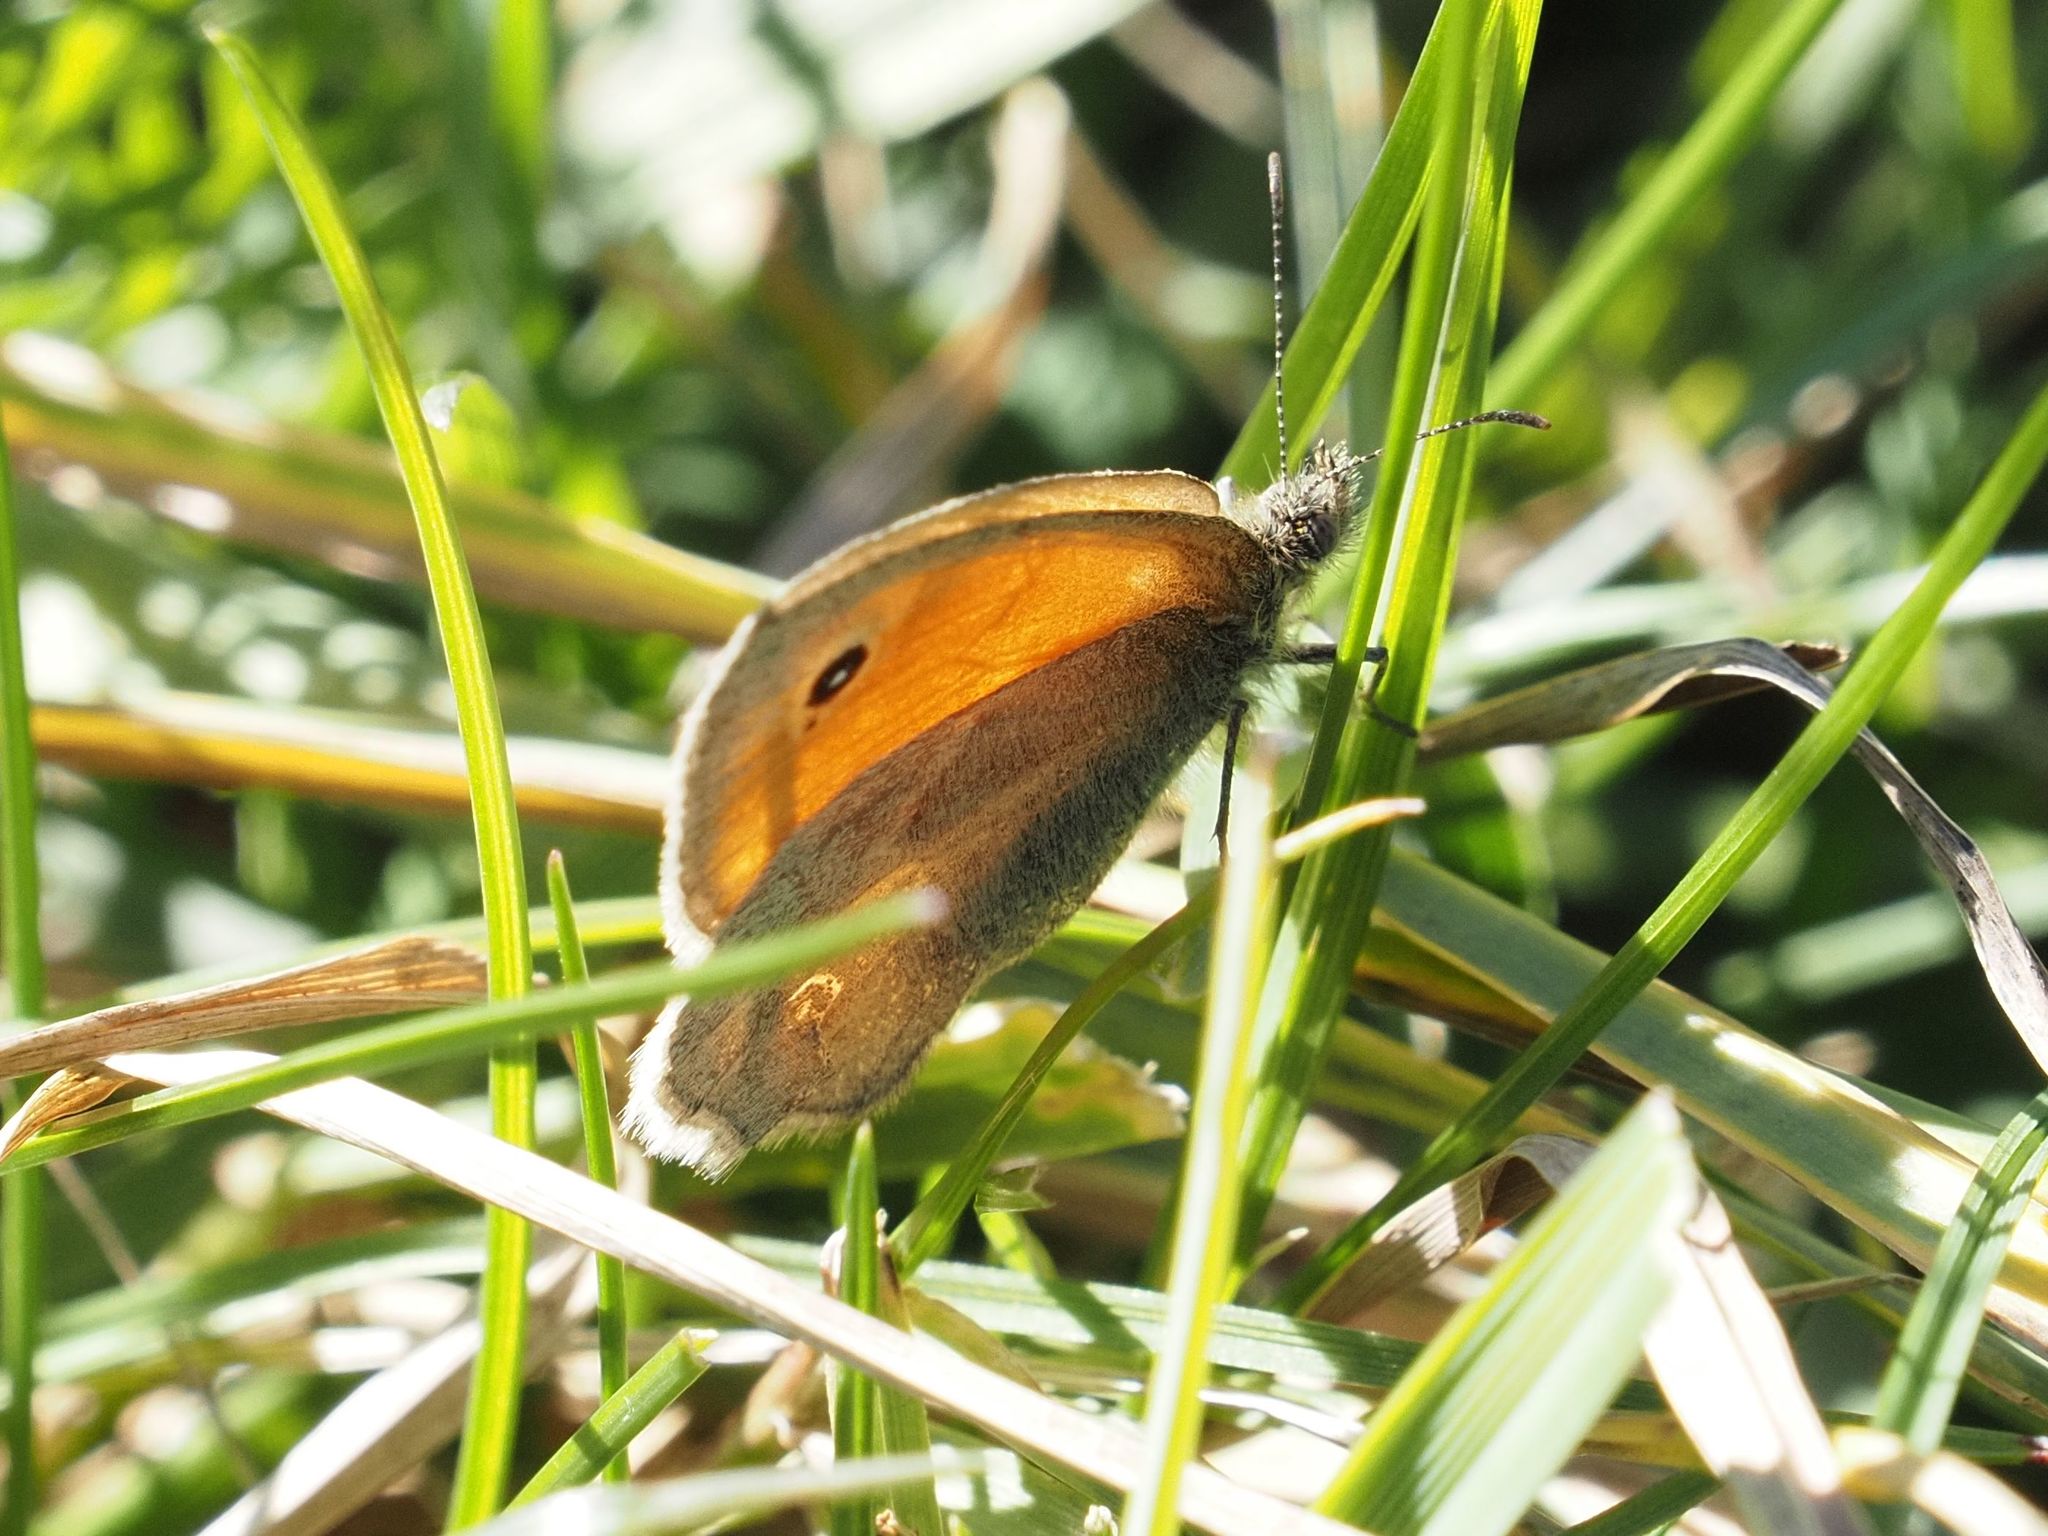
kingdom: Animalia
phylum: Arthropoda
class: Insecta
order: Lepidoptera
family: Nymphalidae
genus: Coenonympha
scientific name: Coenonympha pamphilus
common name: Small heath
